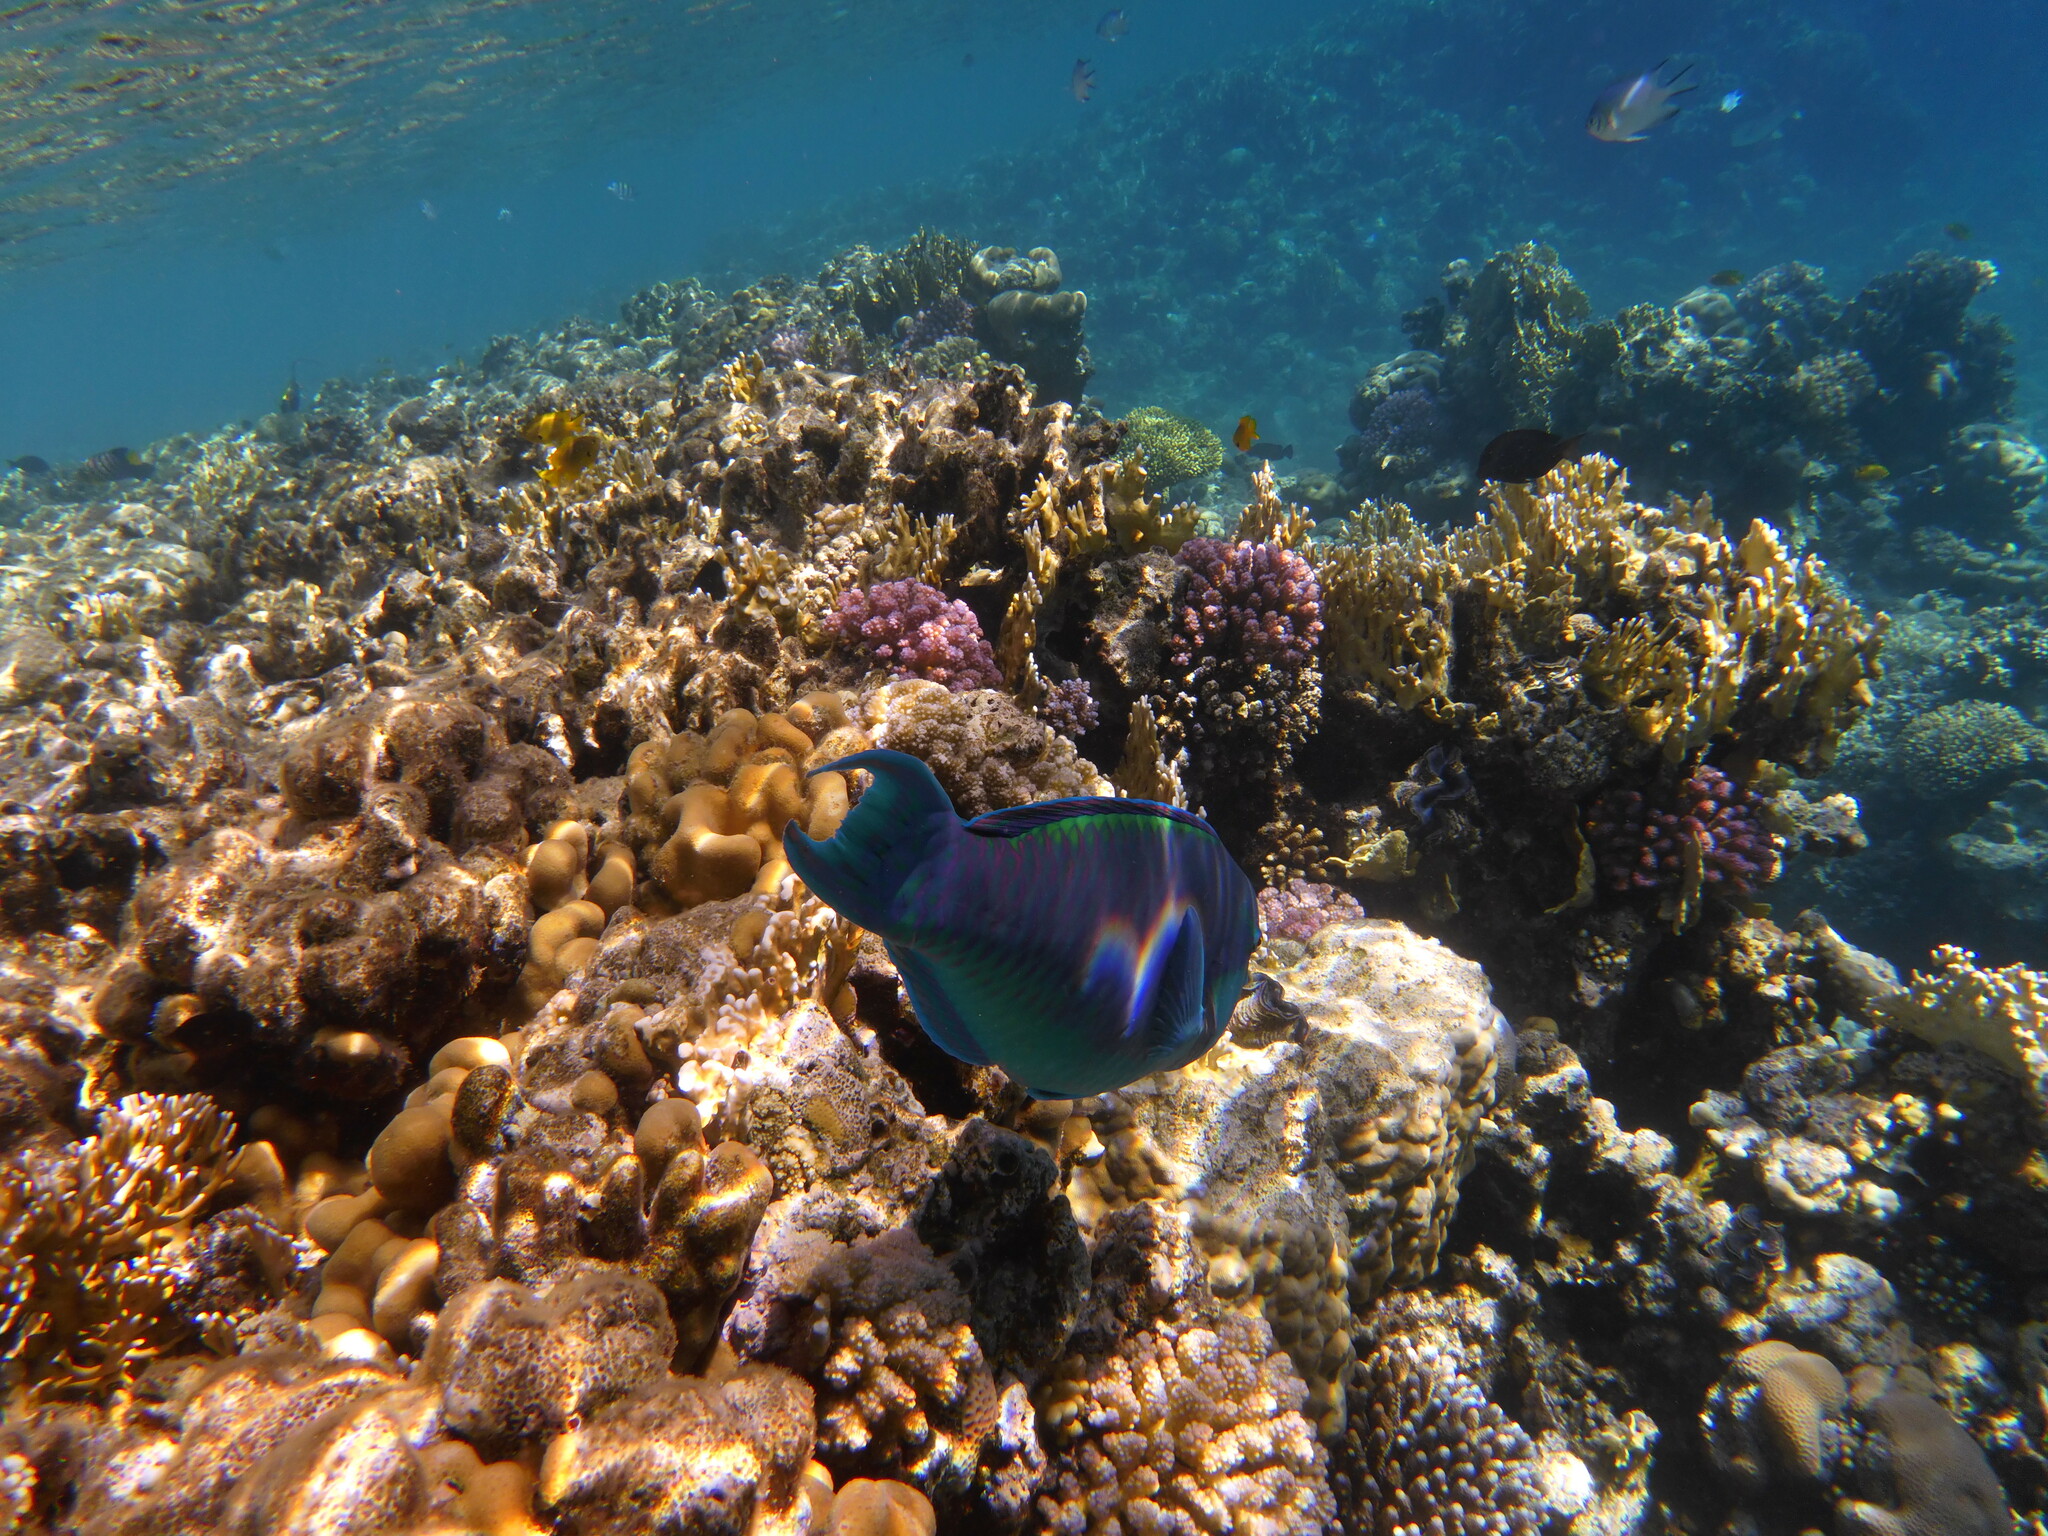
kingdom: Animalia
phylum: Chordata
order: Perciformes
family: Scaridae
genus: Chlorurus
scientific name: Chlorurus gibbus
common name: Heavybeak parrotfish
